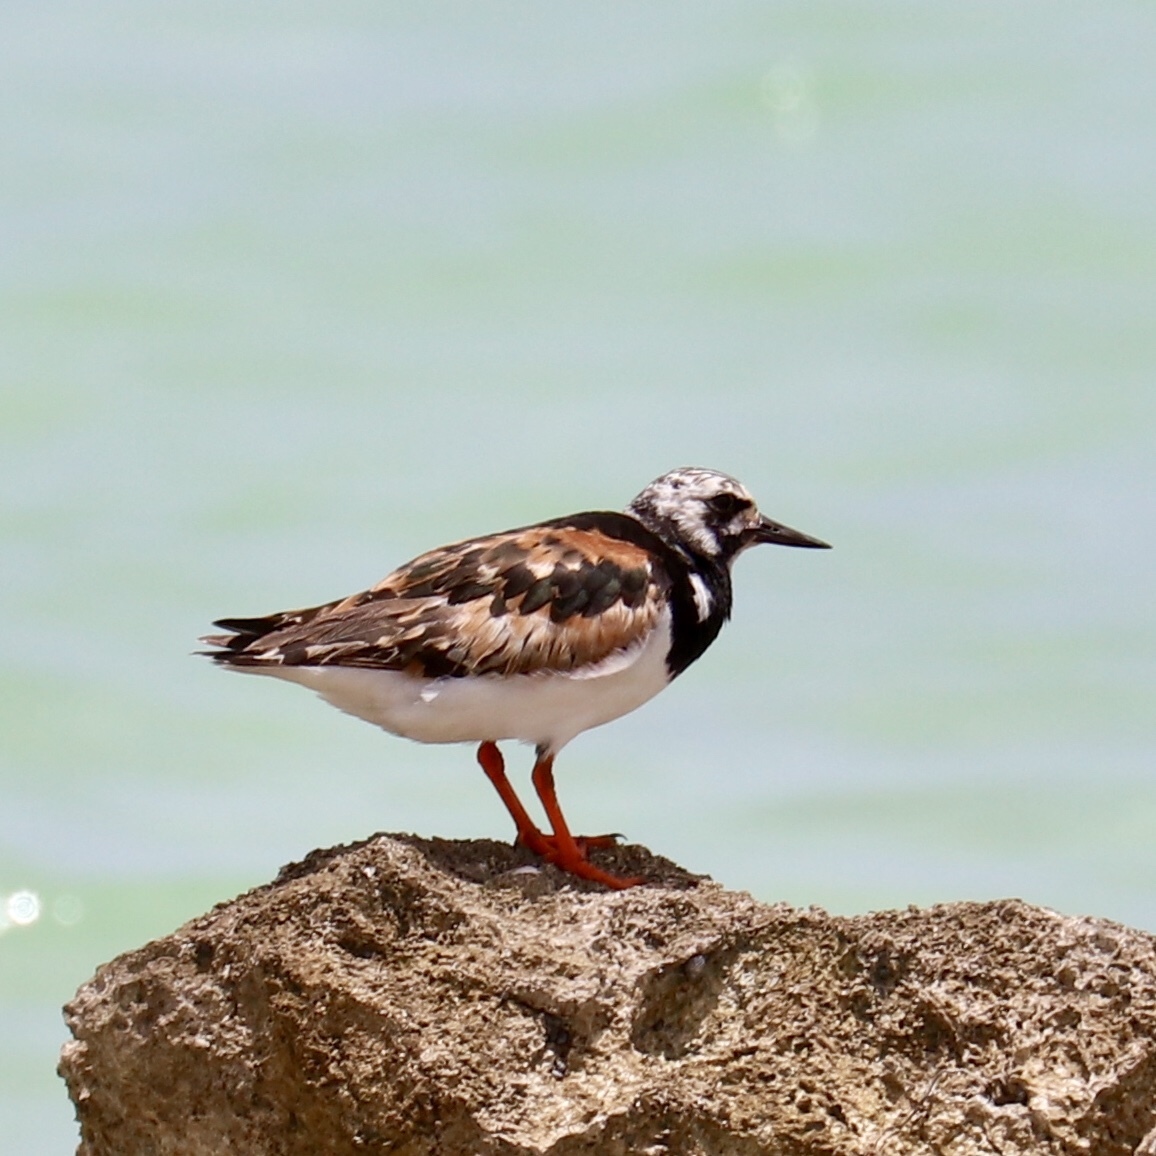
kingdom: Animalia
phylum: Chordata
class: Aves
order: Charadriiformes
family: Scolopacidae
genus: Arenaria
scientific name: Arenaria interpres
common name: Ruddy turnstone
